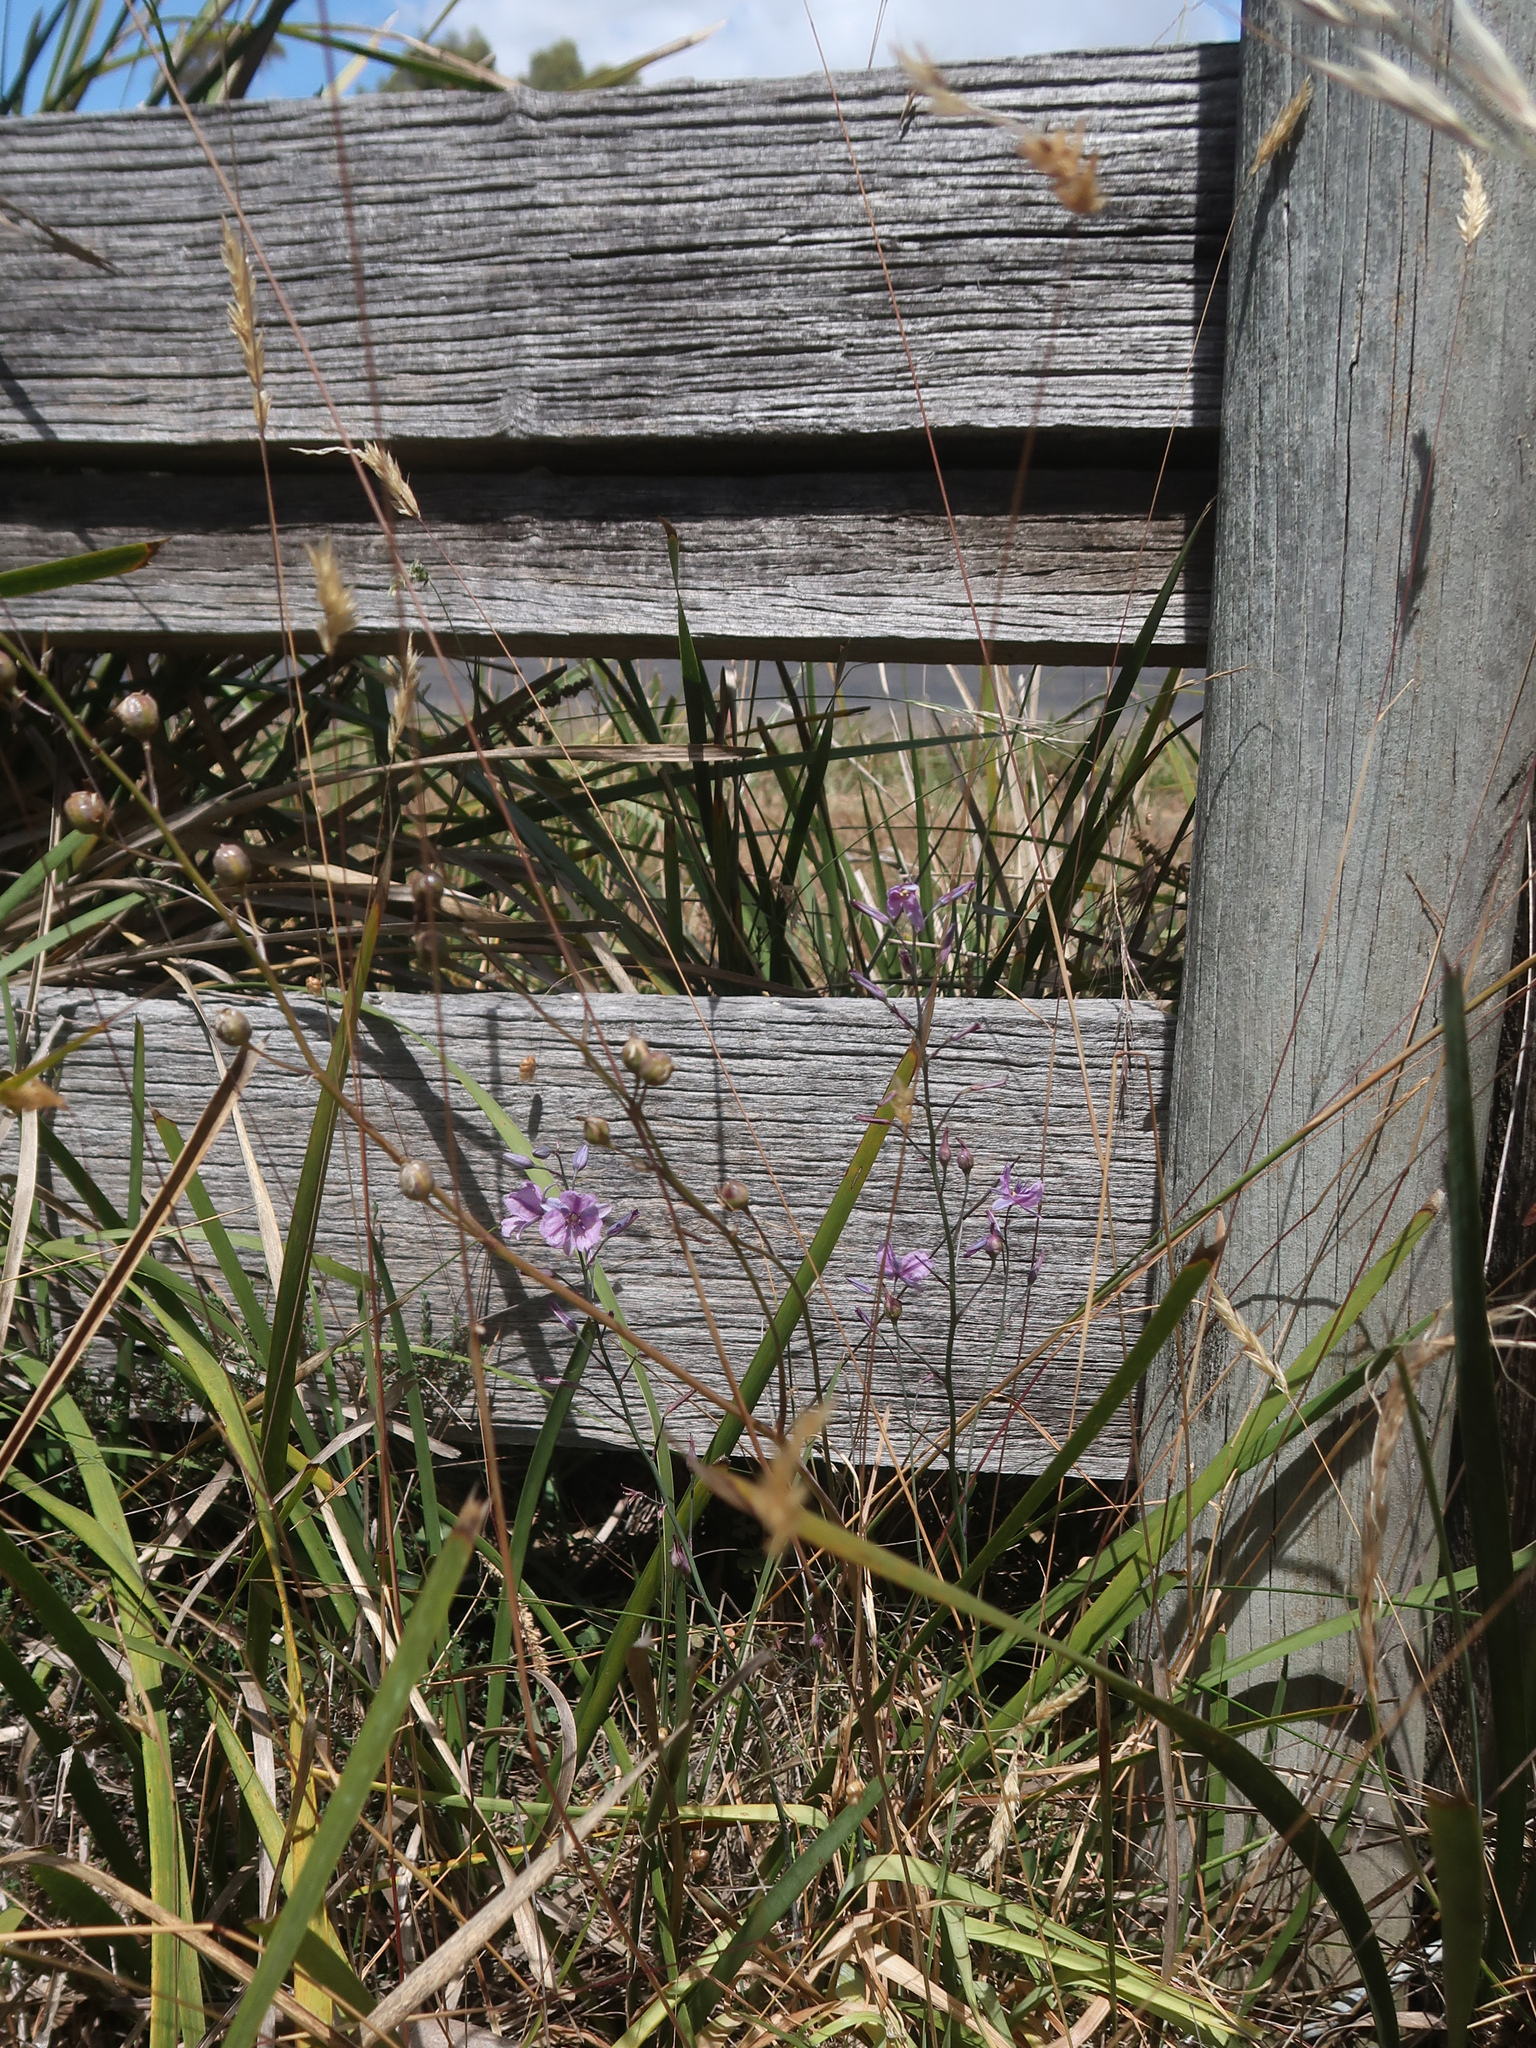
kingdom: Plantae
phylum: Tracheophyta
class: Liliopsida
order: Asparagales
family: Asparagaceae
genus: Arthropodium
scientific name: Arthropodium strictum
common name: Chocolate-lily
